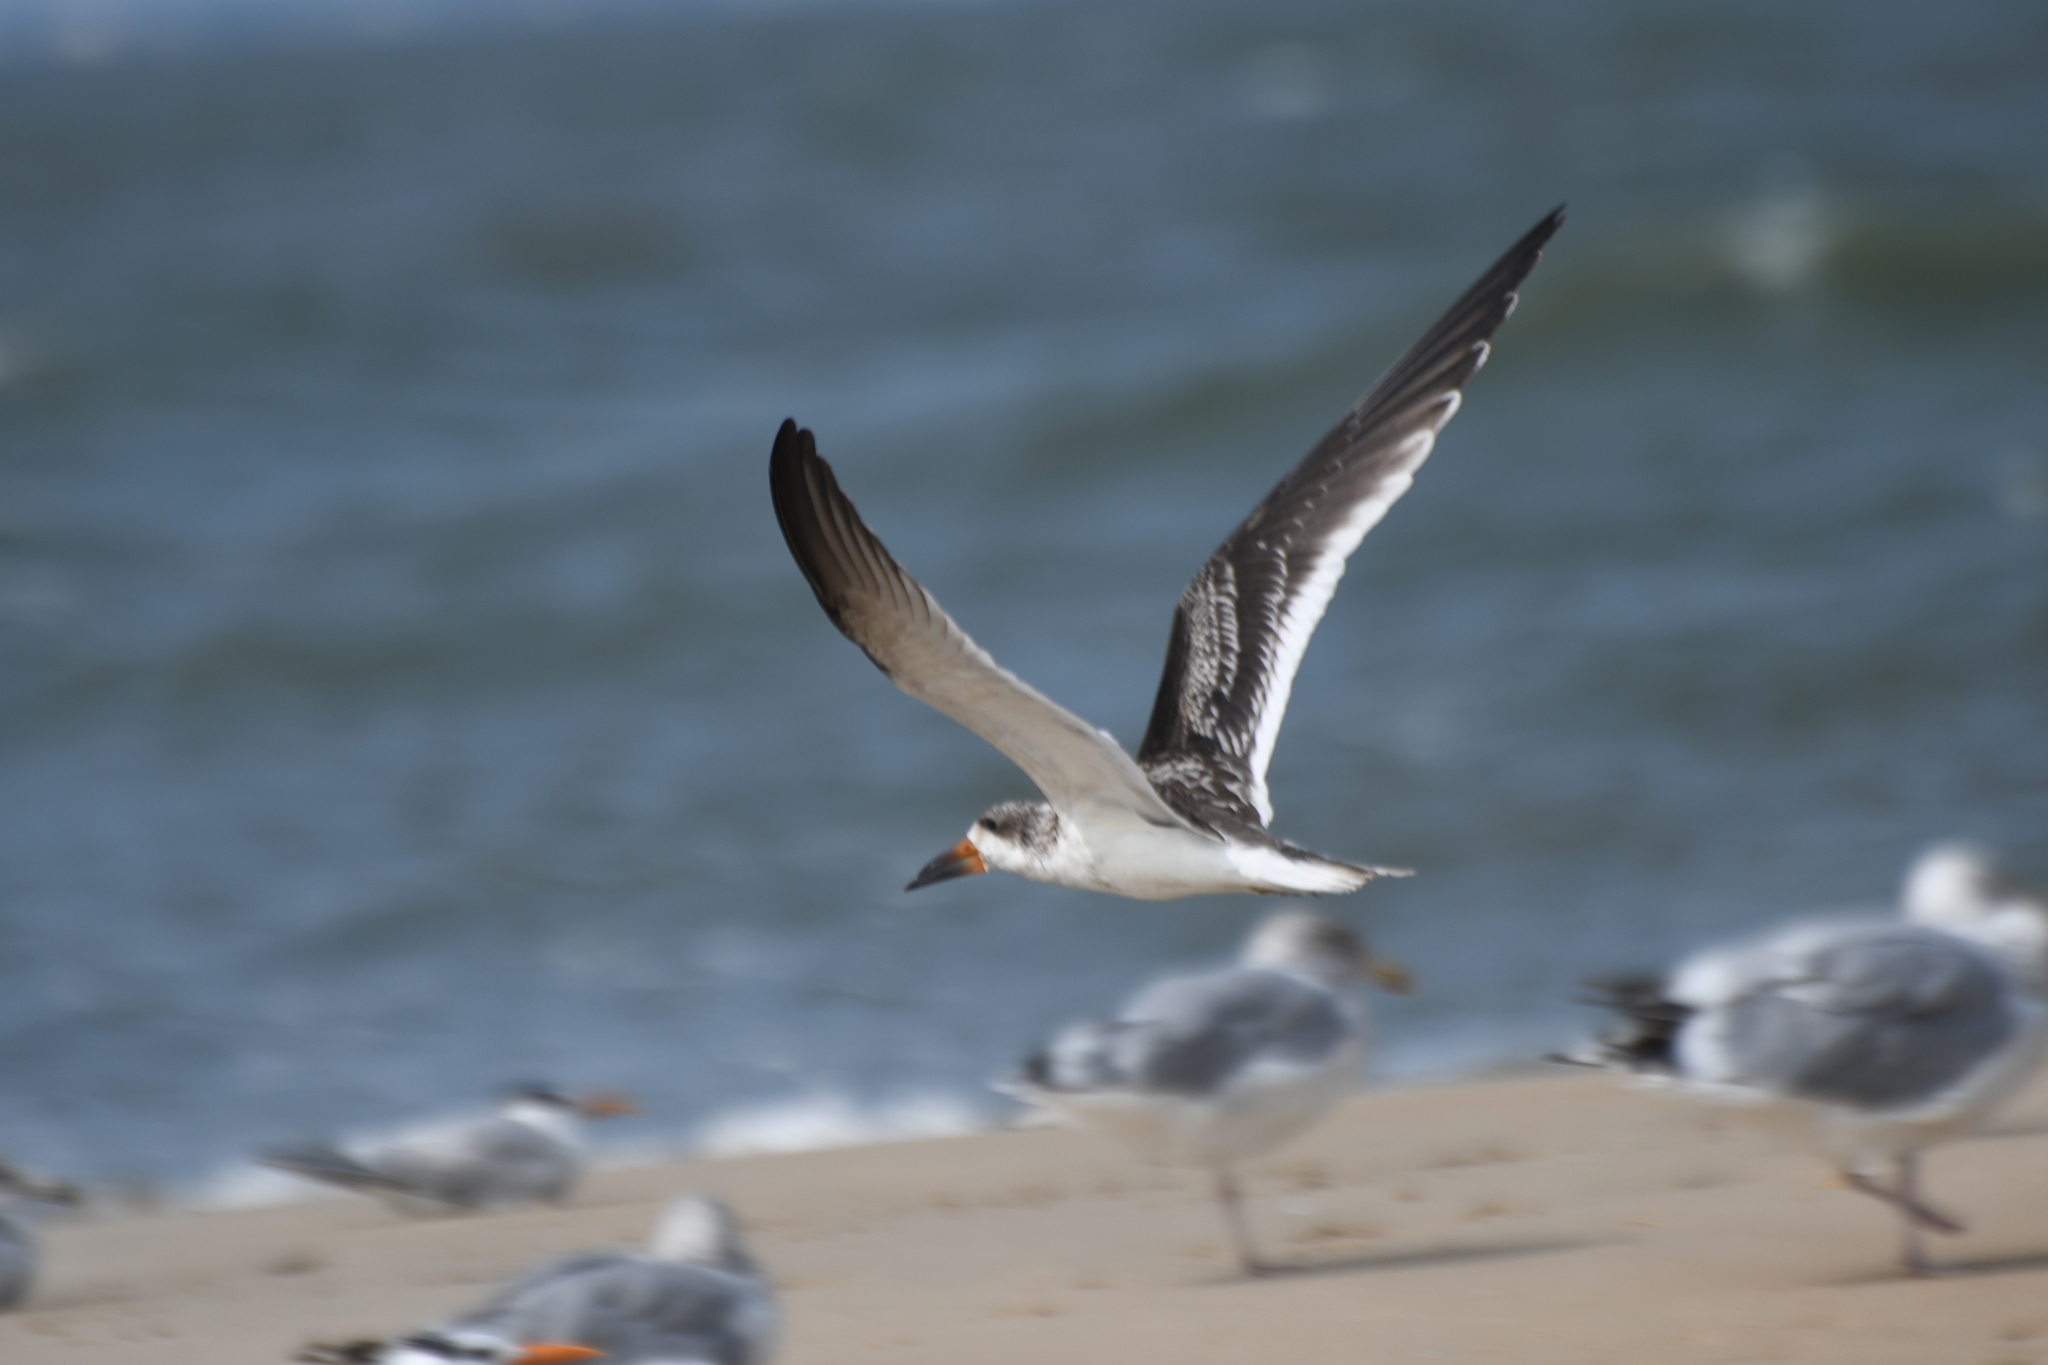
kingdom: Animalia
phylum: Chordata
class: Aves
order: Charadriiformes
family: Laridae
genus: Rynchops
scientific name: Rynchops niger
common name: Black skimmer
